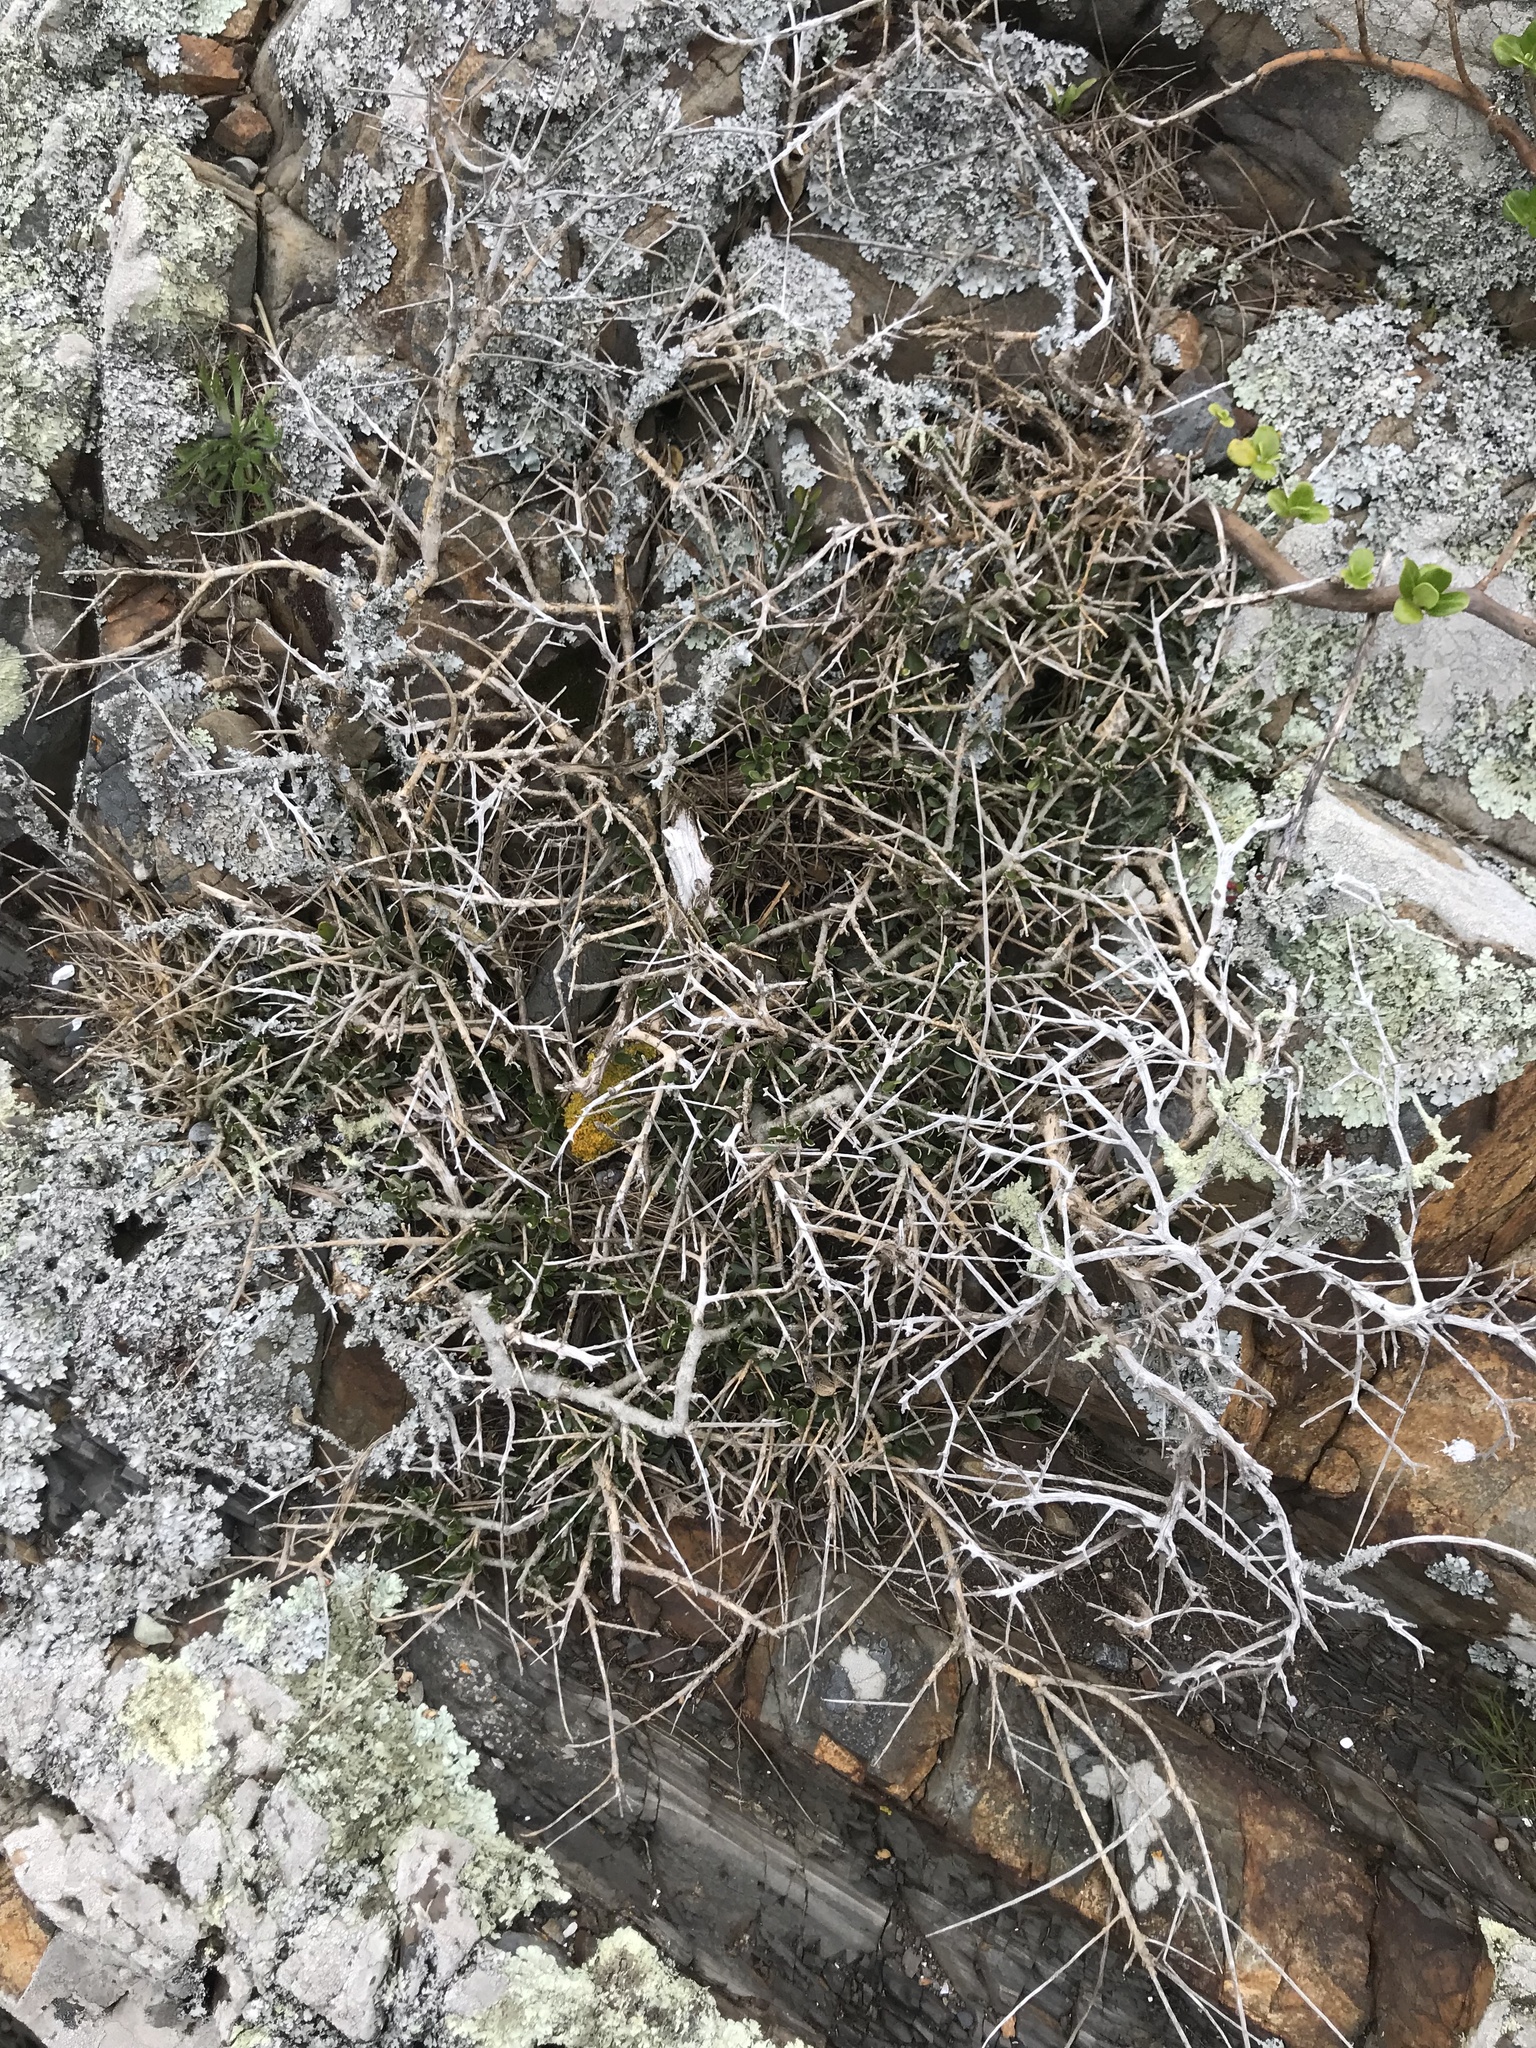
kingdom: Plantae
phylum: Tracheophyta
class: Magnoliopsida
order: Malpighiales
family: Violaceae
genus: Melicytus
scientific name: Melicytus crassifolius
